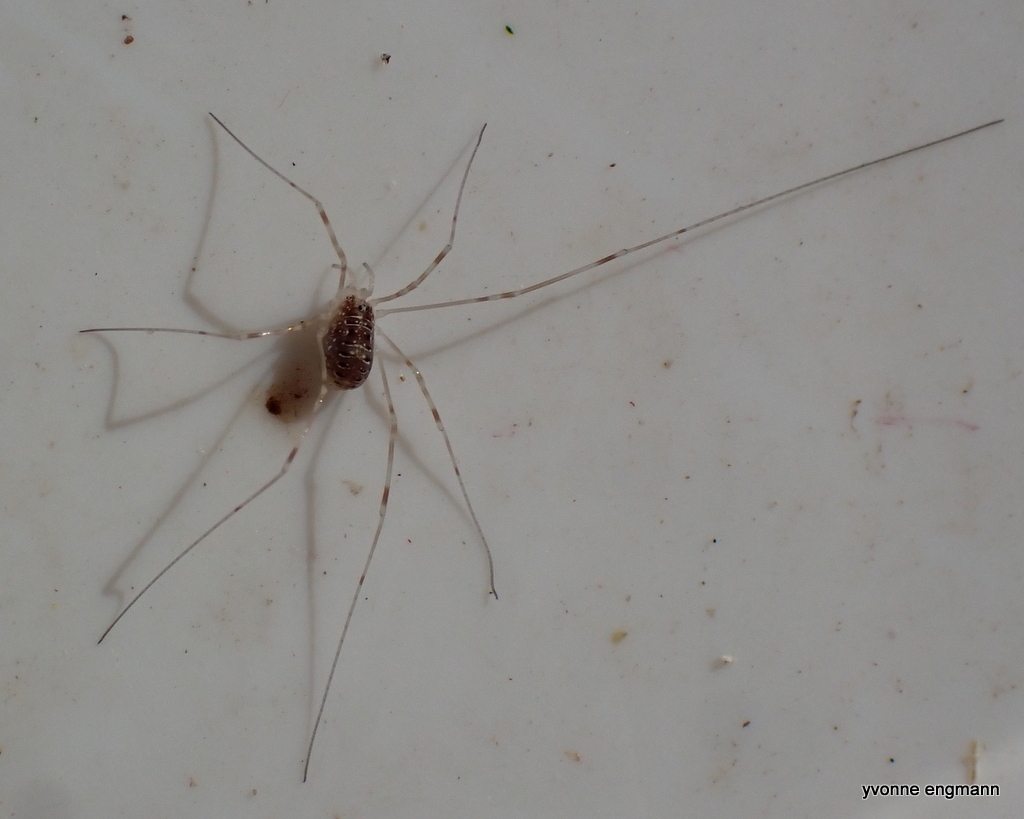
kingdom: Animalia
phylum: Arthropoda
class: Arachnida
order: Opiliones
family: Phalangiidae
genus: Opilio
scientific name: Opilio canestrinii
